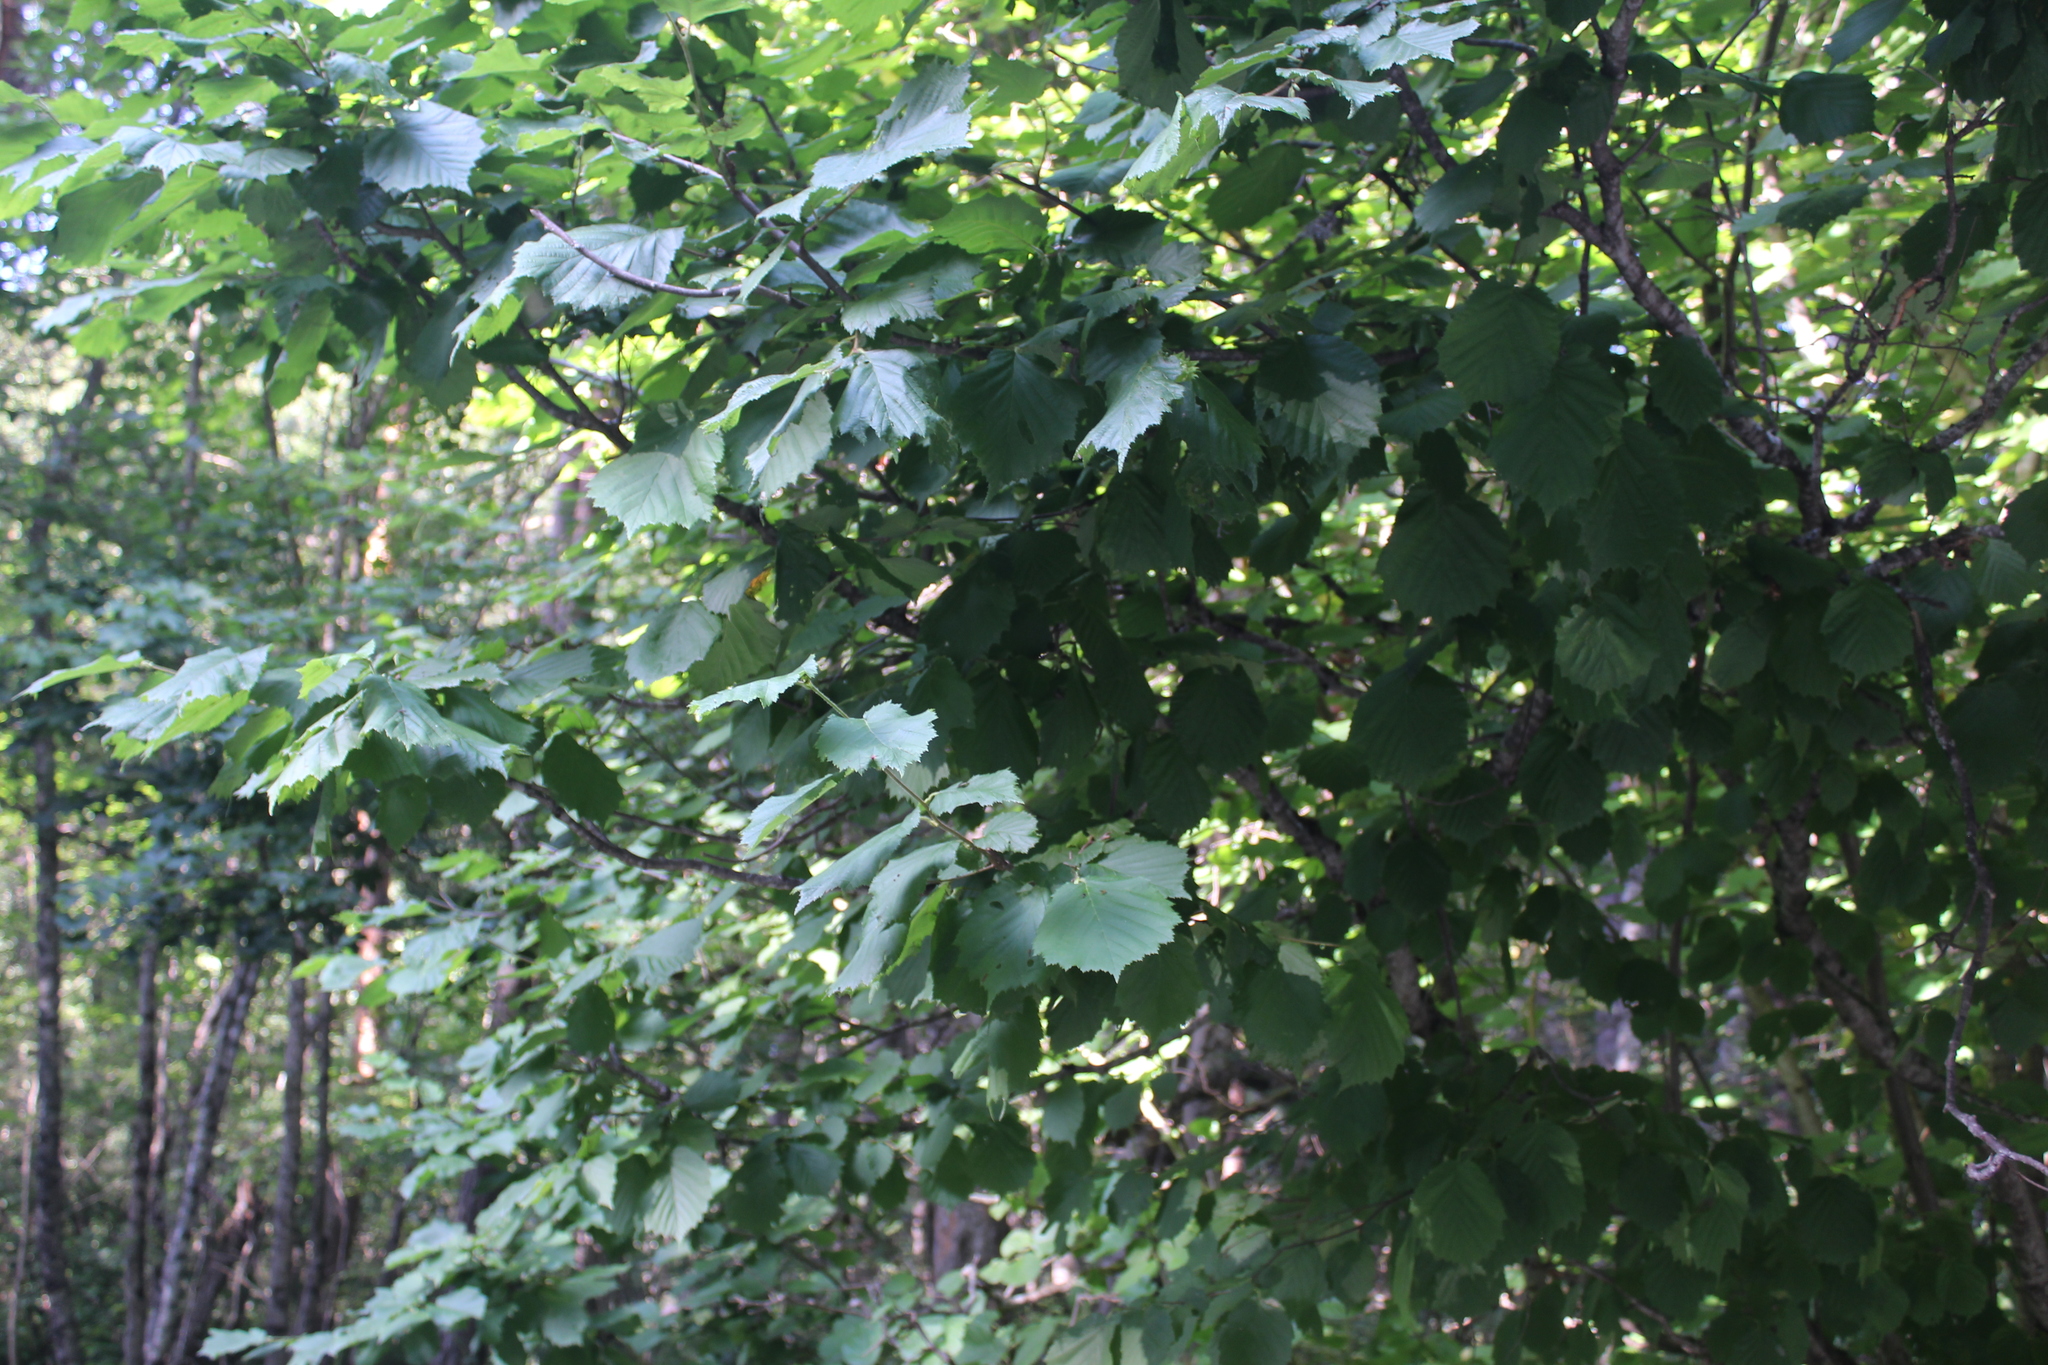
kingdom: Plantae
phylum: Tracheophyta
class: Magnoliopsida
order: Fagales
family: Betulaceae
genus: Corylus
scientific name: Corylus avellana
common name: European hazel
